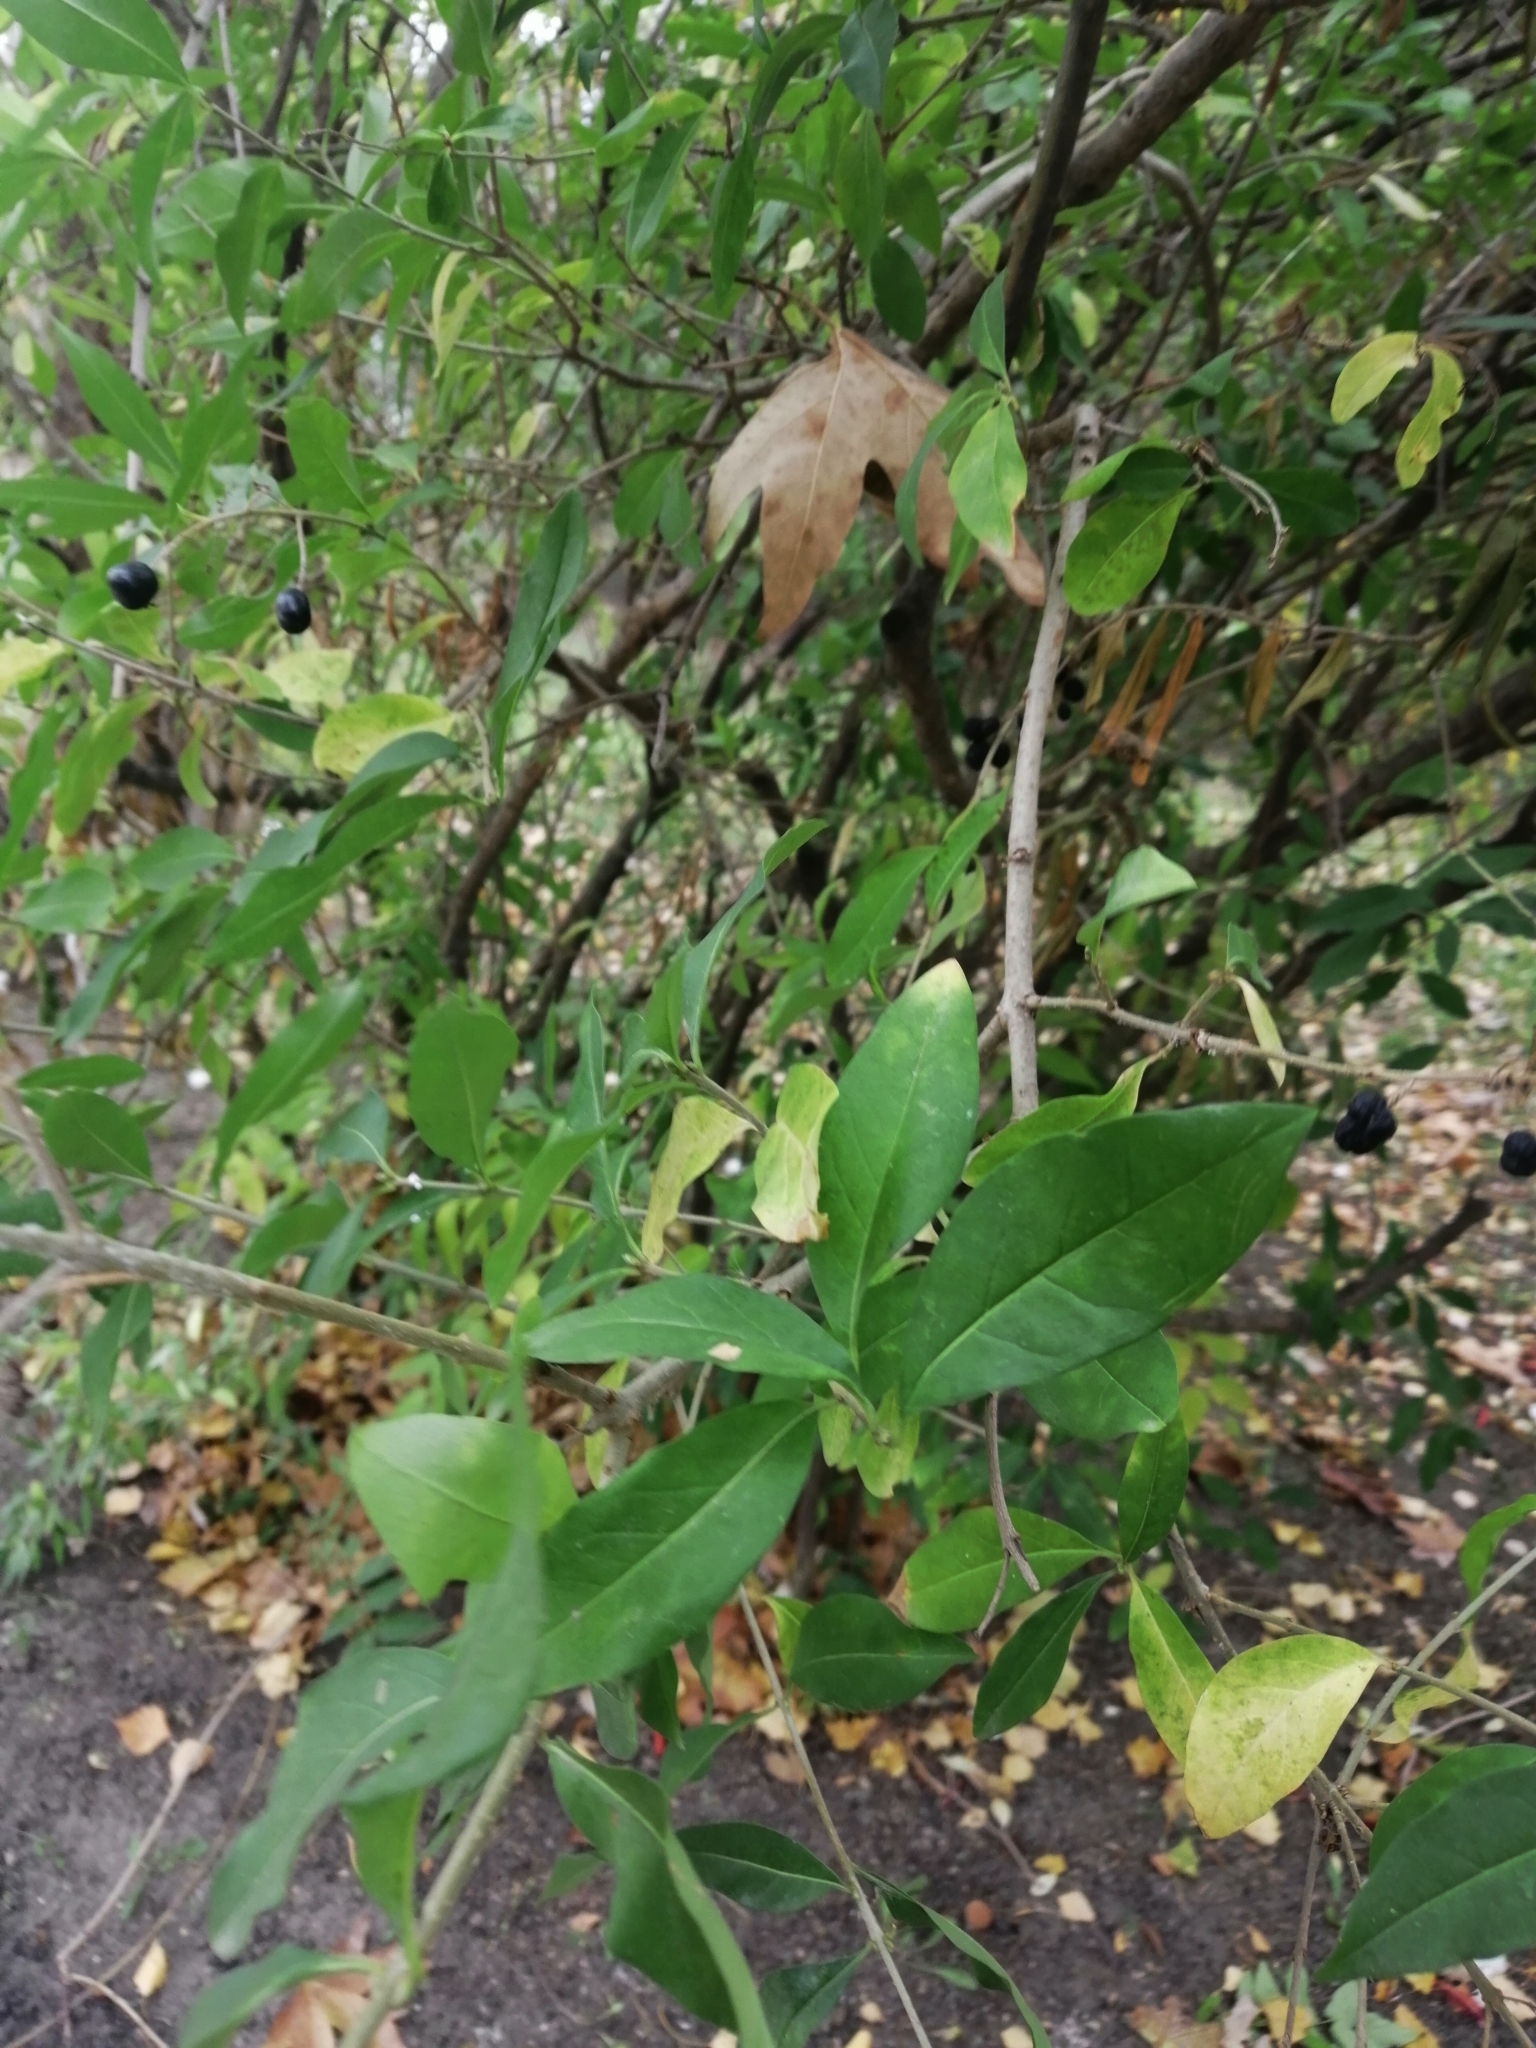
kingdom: Plantae
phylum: Tracheophyta
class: Magnoliopsida
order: Lamiales
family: Oleaceae
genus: Ligustrum
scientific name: Ligustrum vulgare
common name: Wild privet
